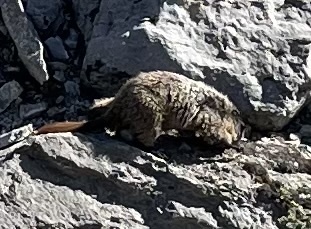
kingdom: Animalia
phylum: Chordata
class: Mammalia
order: Rodentia
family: Sciuridae
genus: Marmota
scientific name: Marmota caligata
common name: Hoary marmot
